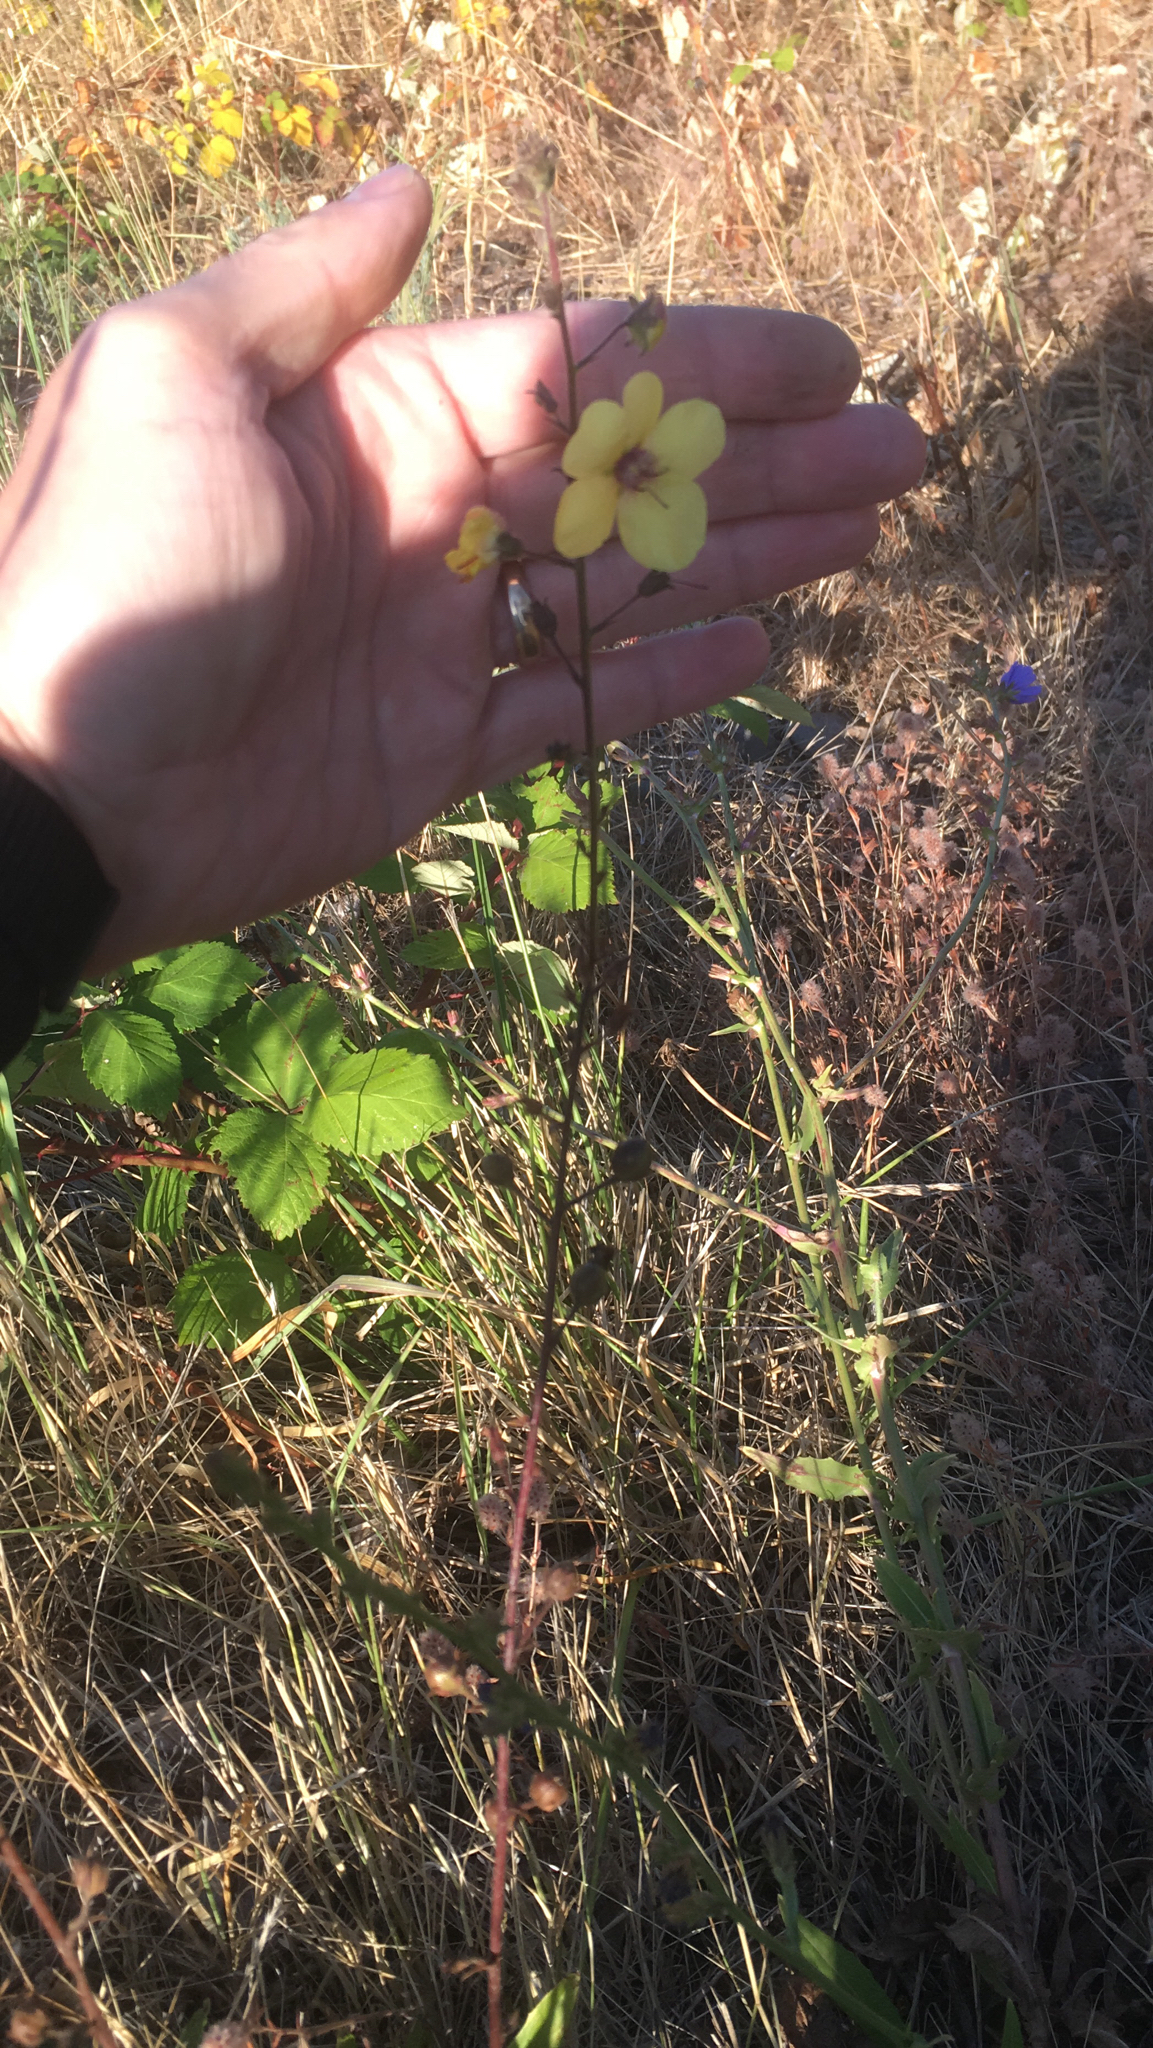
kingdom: Plantae
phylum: Tracheophyta
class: Magnoliopsida
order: Lamiales
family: Scrophulariaceae
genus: Verbascum
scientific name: Verbascum blattaria
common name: Moth mullein
